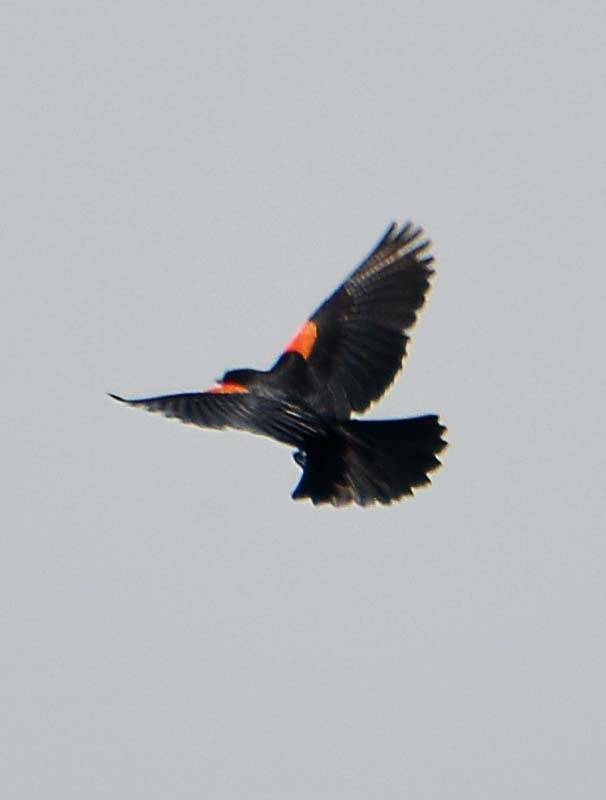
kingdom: Animalia
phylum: Chordata
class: Aves
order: Passeriformes
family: Icteridae
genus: Agelaius
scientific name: Agelaius phoeniceus
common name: Red-winged blackbird
